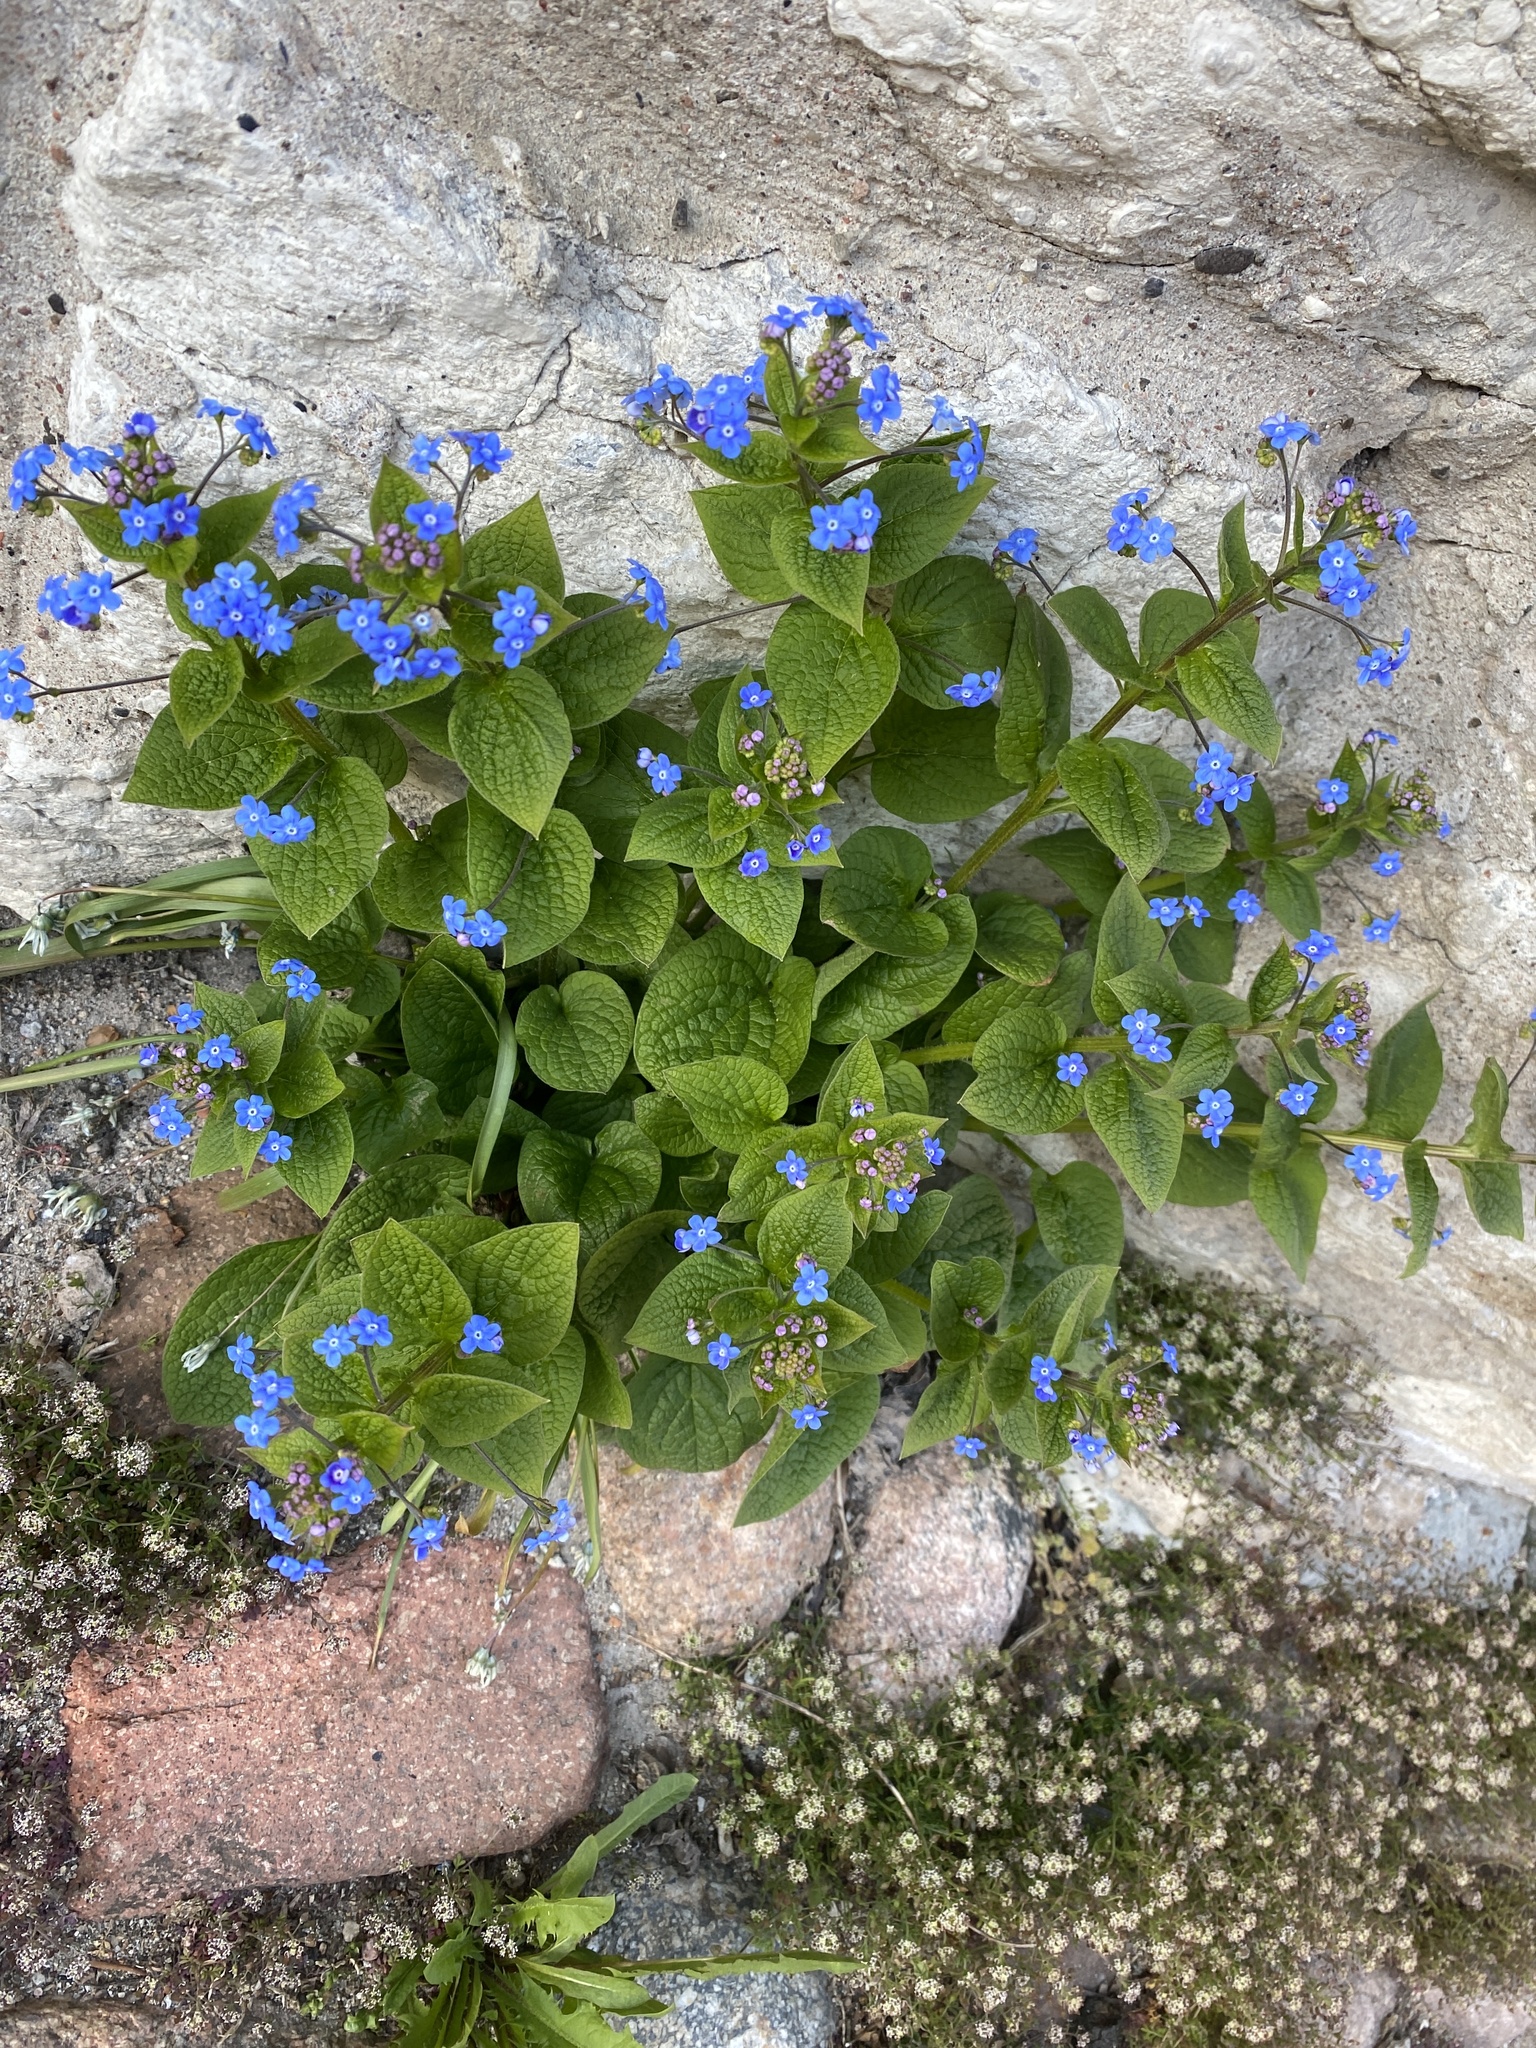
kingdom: Plantae
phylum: Tracheophyta
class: Magnoliopsida
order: Boraginales
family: Boraginaceae
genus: Brunnera
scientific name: Brunnera macrophylla
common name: Great forget-me-not
